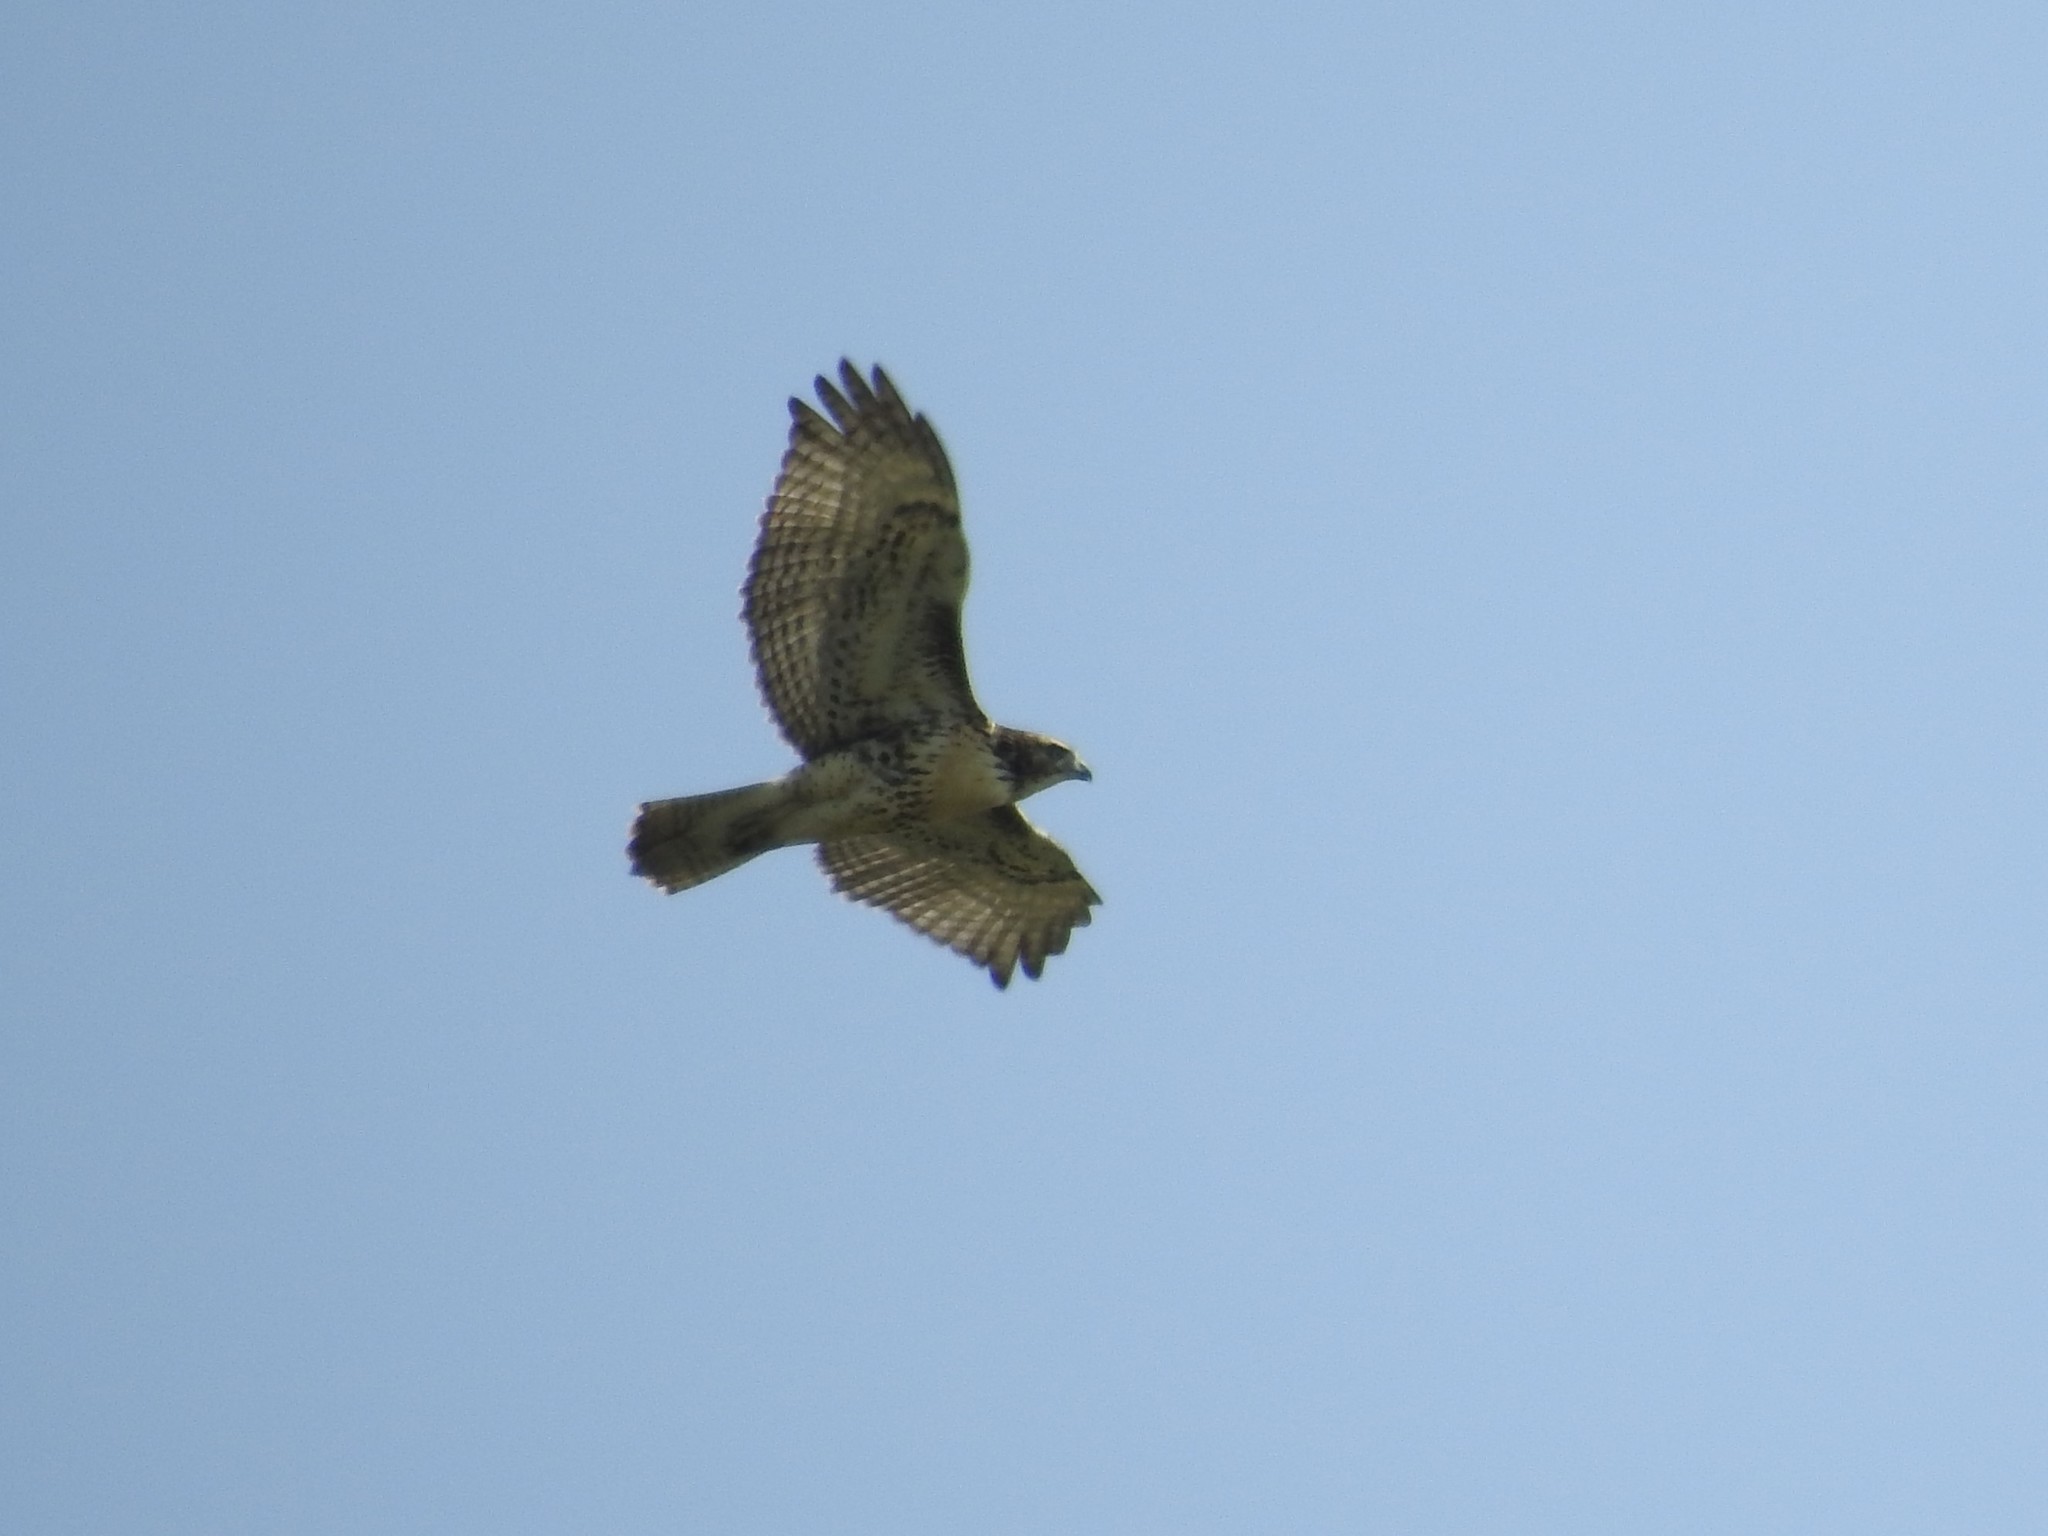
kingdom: Animalia
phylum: Chordata
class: Aves
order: Accipitriformes
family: Accipitridae
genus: Buteo
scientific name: Buteo jamaicensis
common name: Red-tailed hawk
